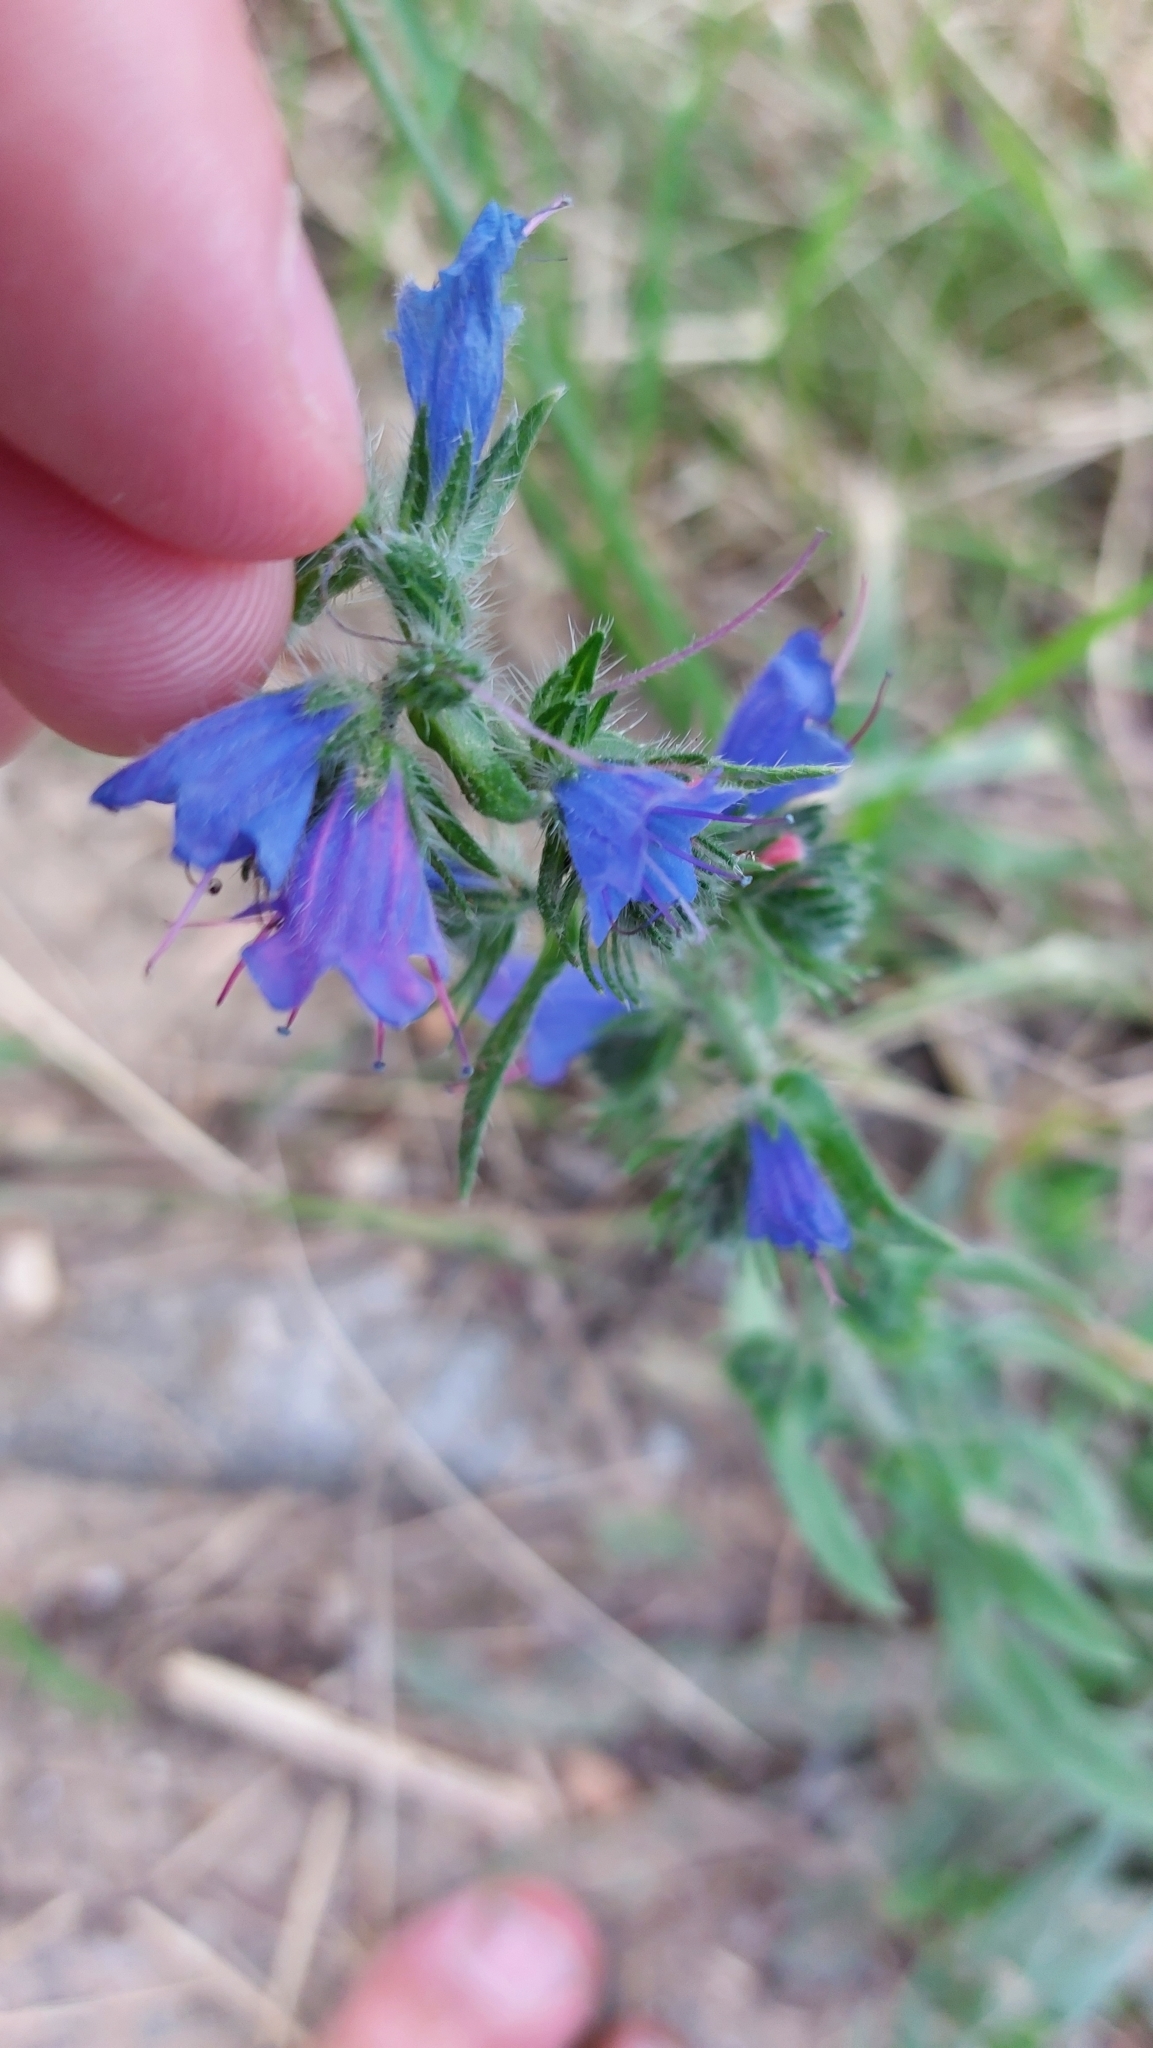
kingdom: Plantae
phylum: Tracheophyta
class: Magnoliopsida
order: Boraginales
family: Boraginaceae
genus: Echium
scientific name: Echium vulgare
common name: Common viper's bugloss
